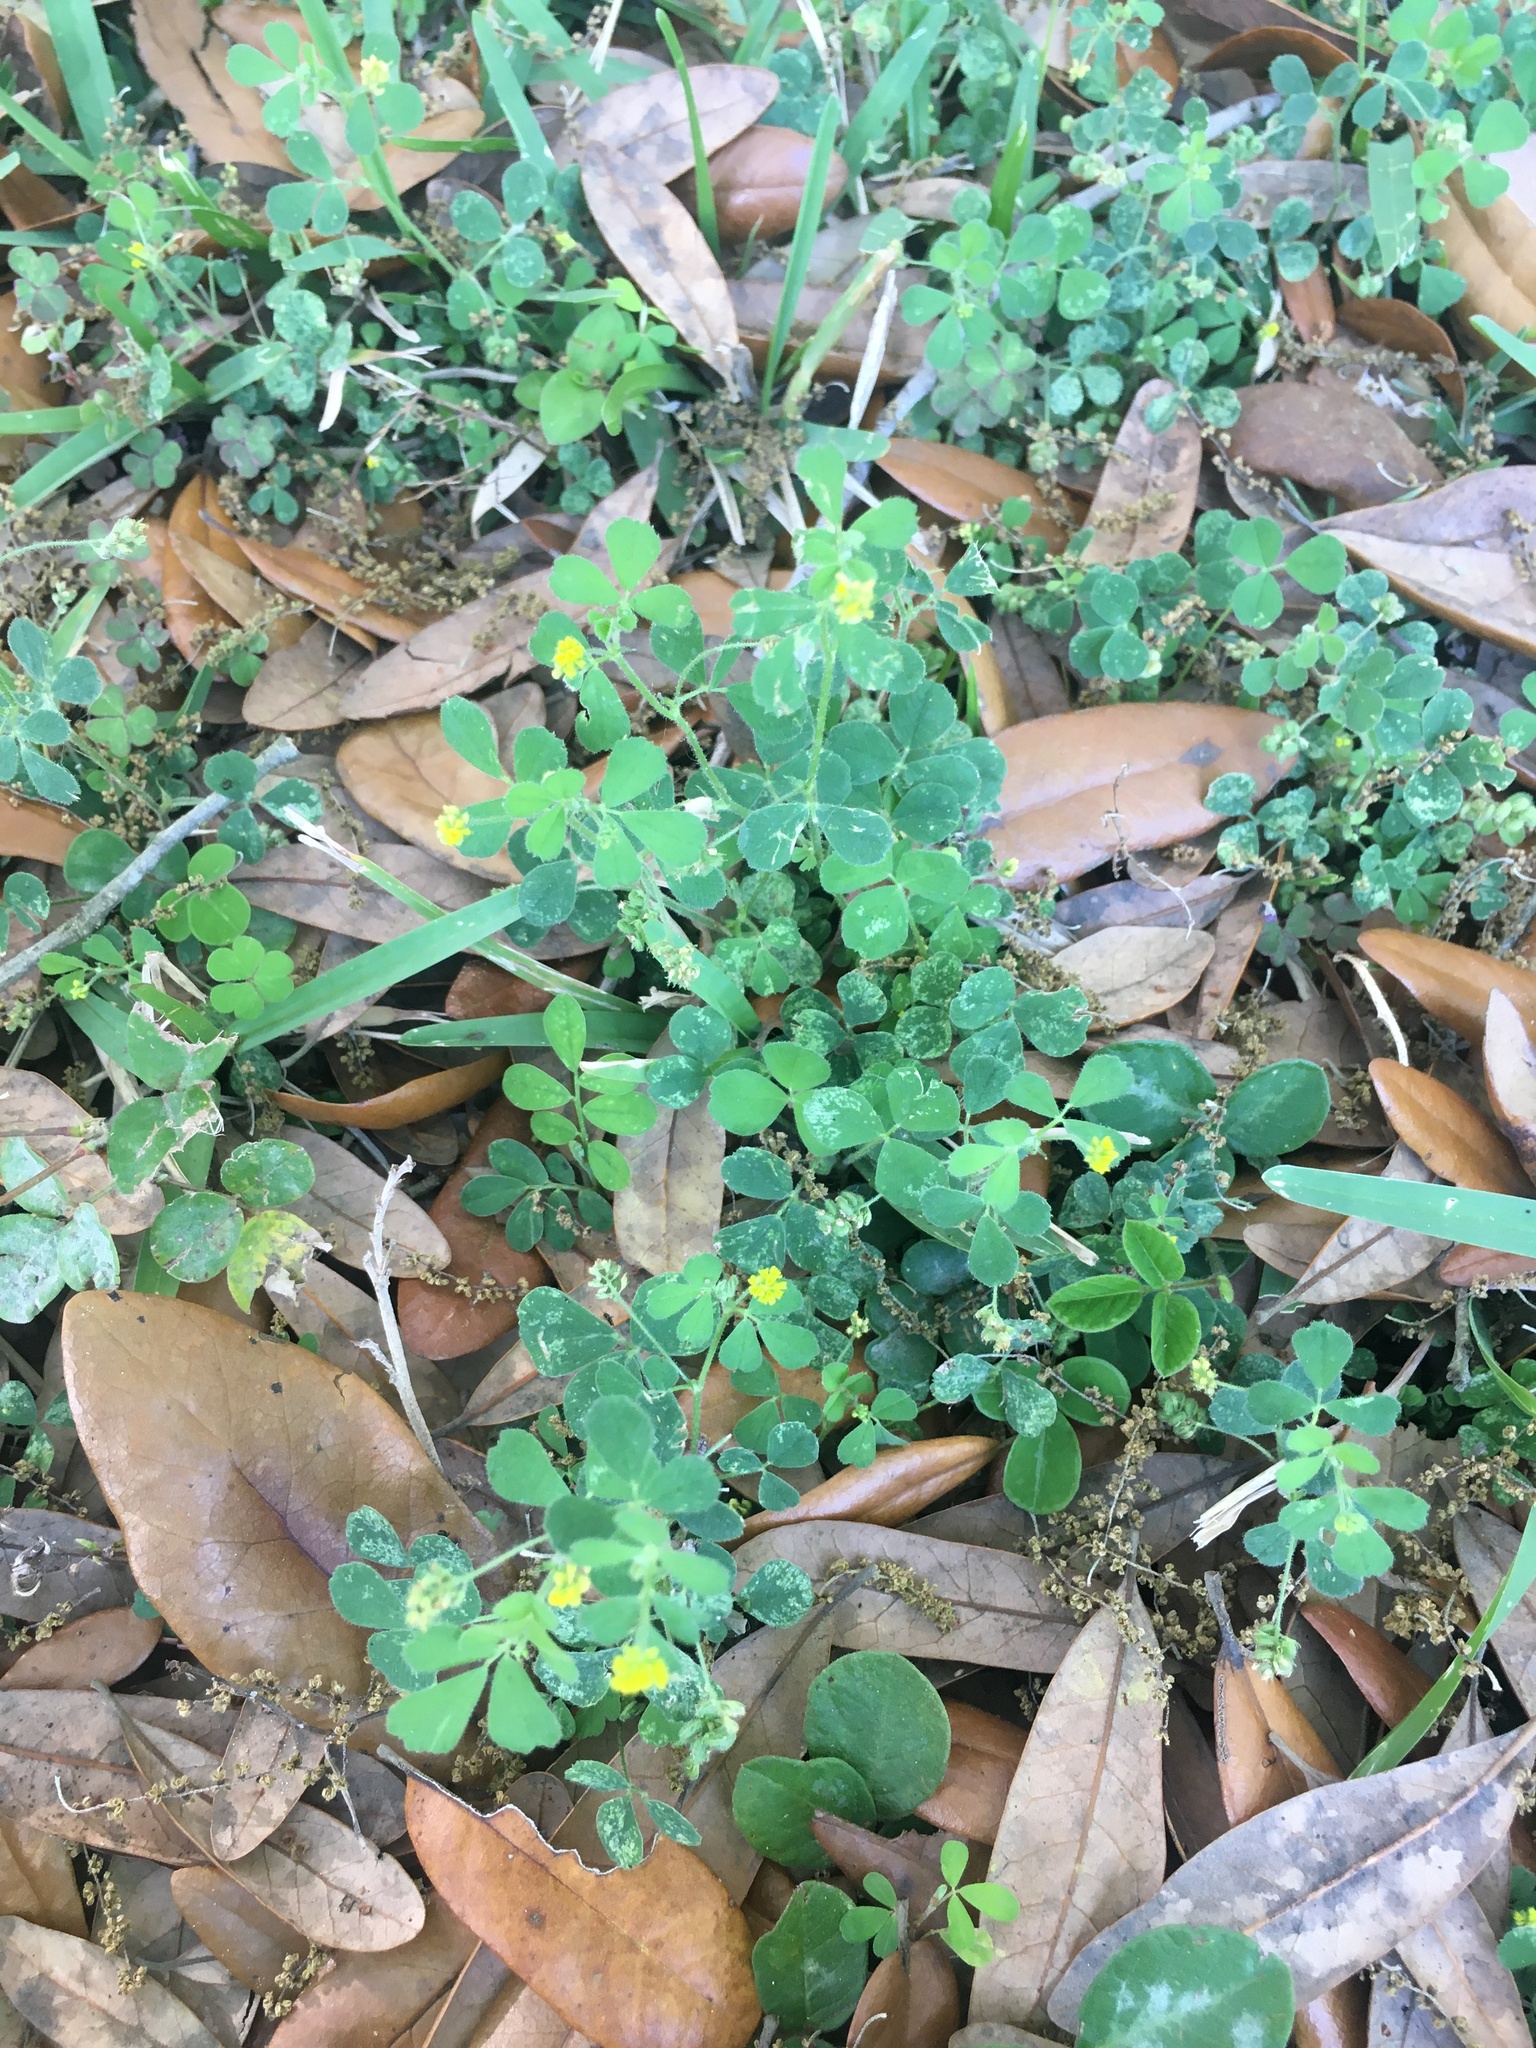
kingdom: Plantae
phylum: Tracheophyta
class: Magnoliopsida
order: Fabales
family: Fabaceae
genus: Medicago
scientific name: Medicago lupulina
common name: Black medick
